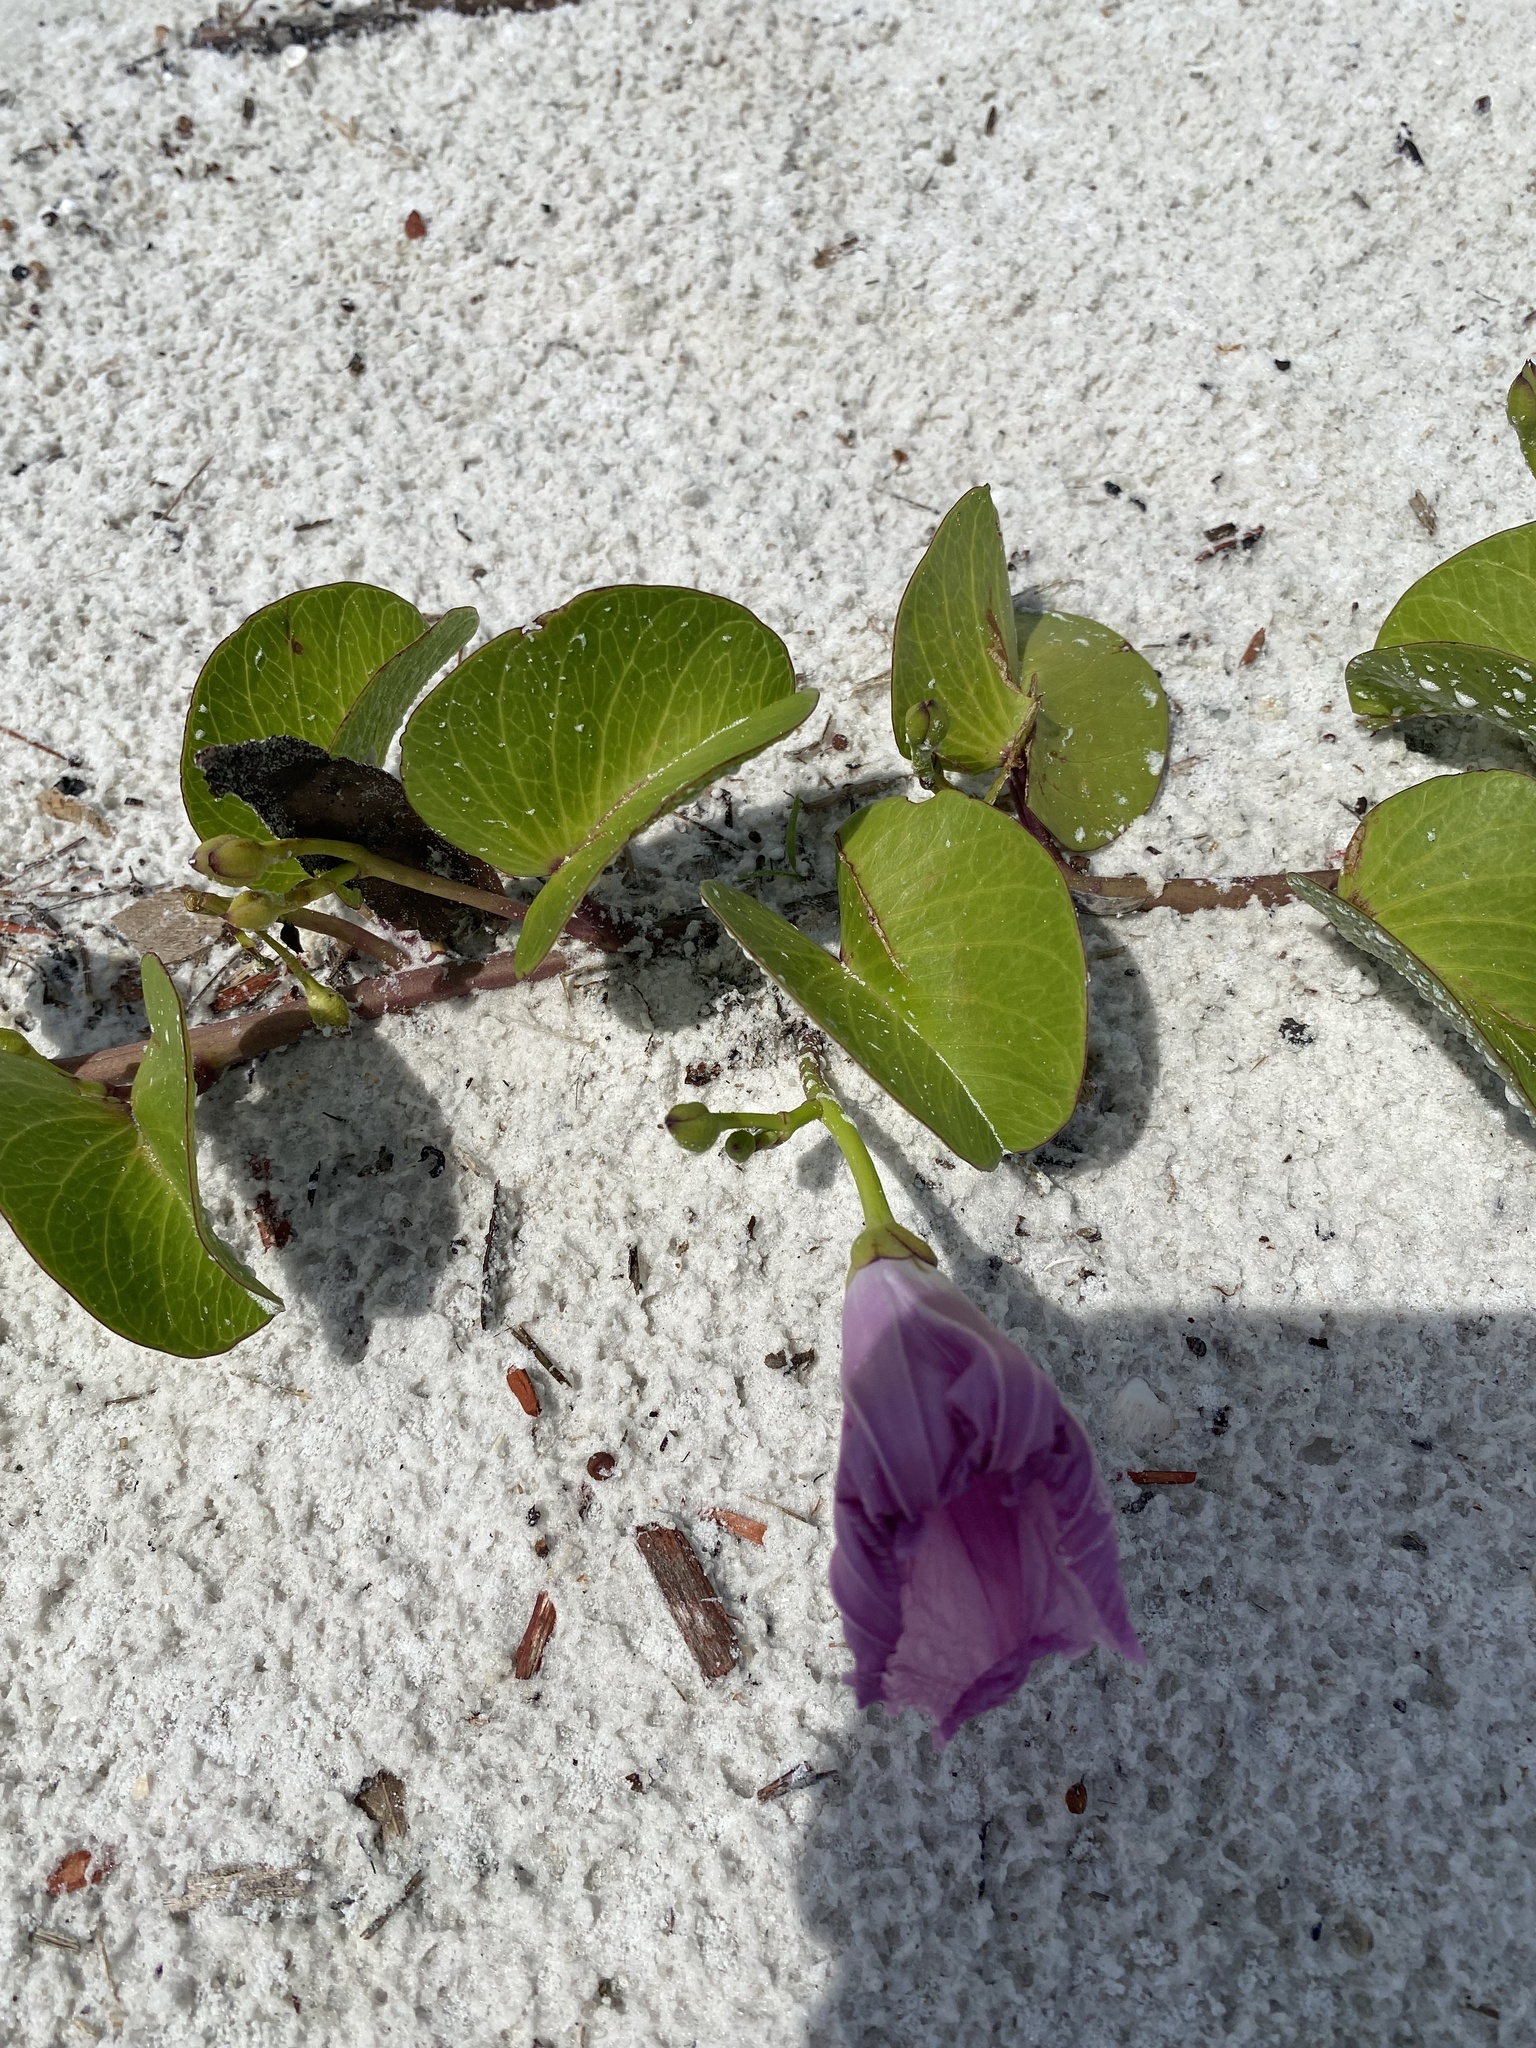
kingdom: Plantae
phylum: Tracheophyta
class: Magnoliopsida
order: Solanales
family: Convolvulaceae
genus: Ipomoea
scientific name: Ipomoea pes-caprae
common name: Beach morning glory
